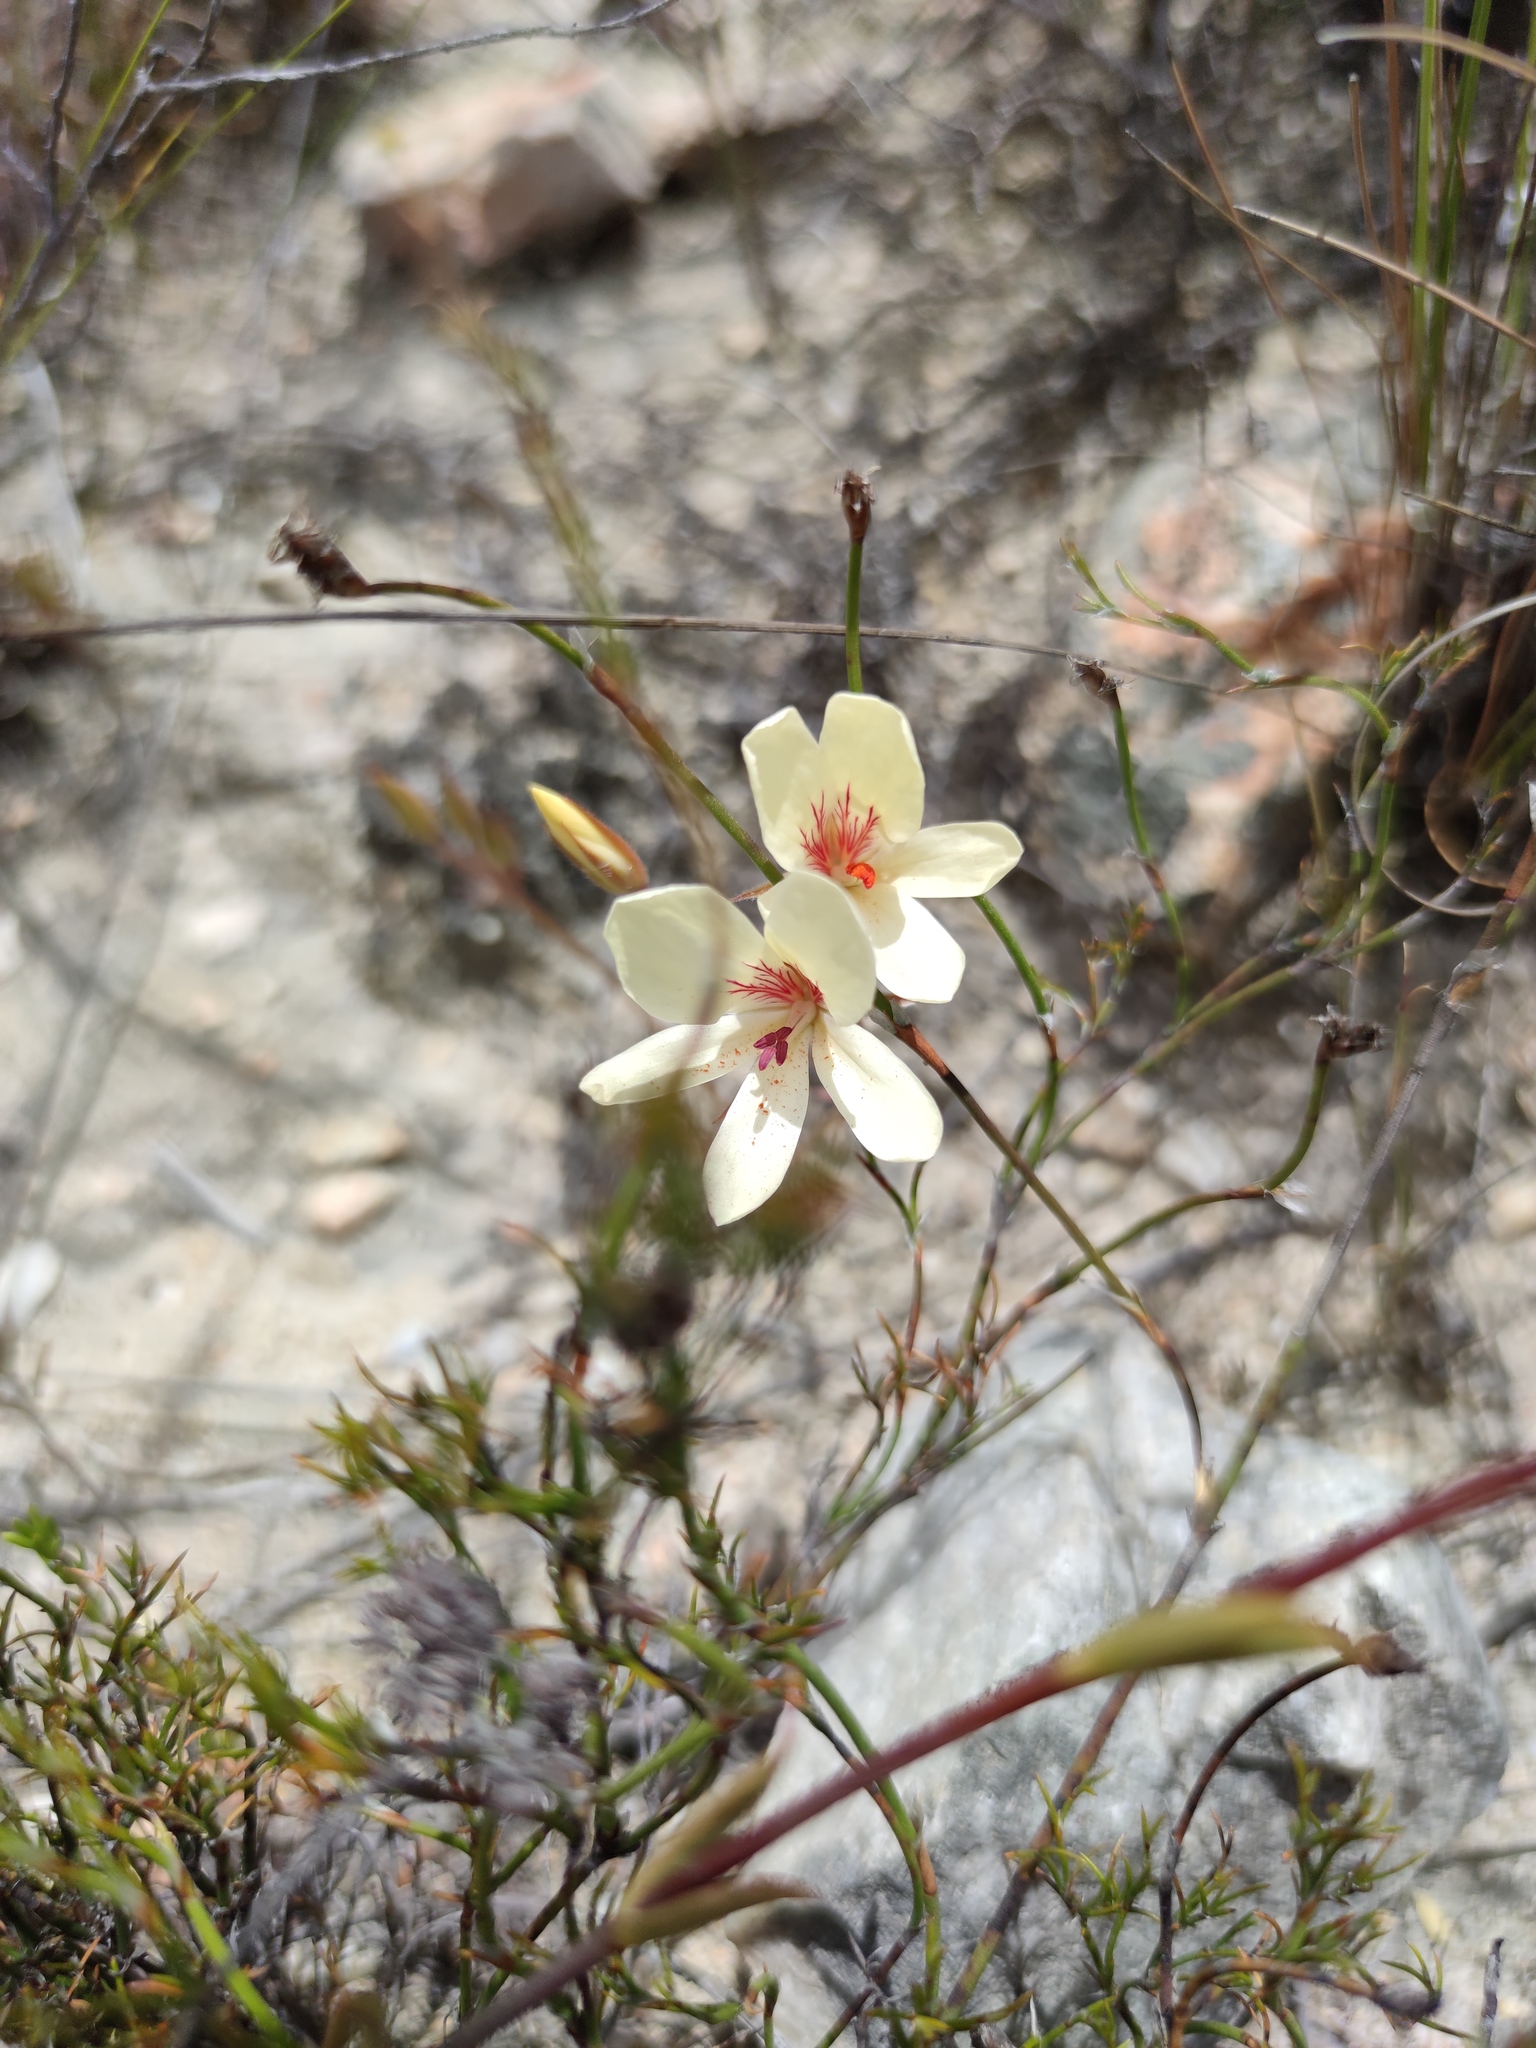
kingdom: Plantae
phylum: Tracheophyta
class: Magnoliopsida
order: Geraniales
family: Geraniaceae
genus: Pelargonium
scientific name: Pelargonium carneum
